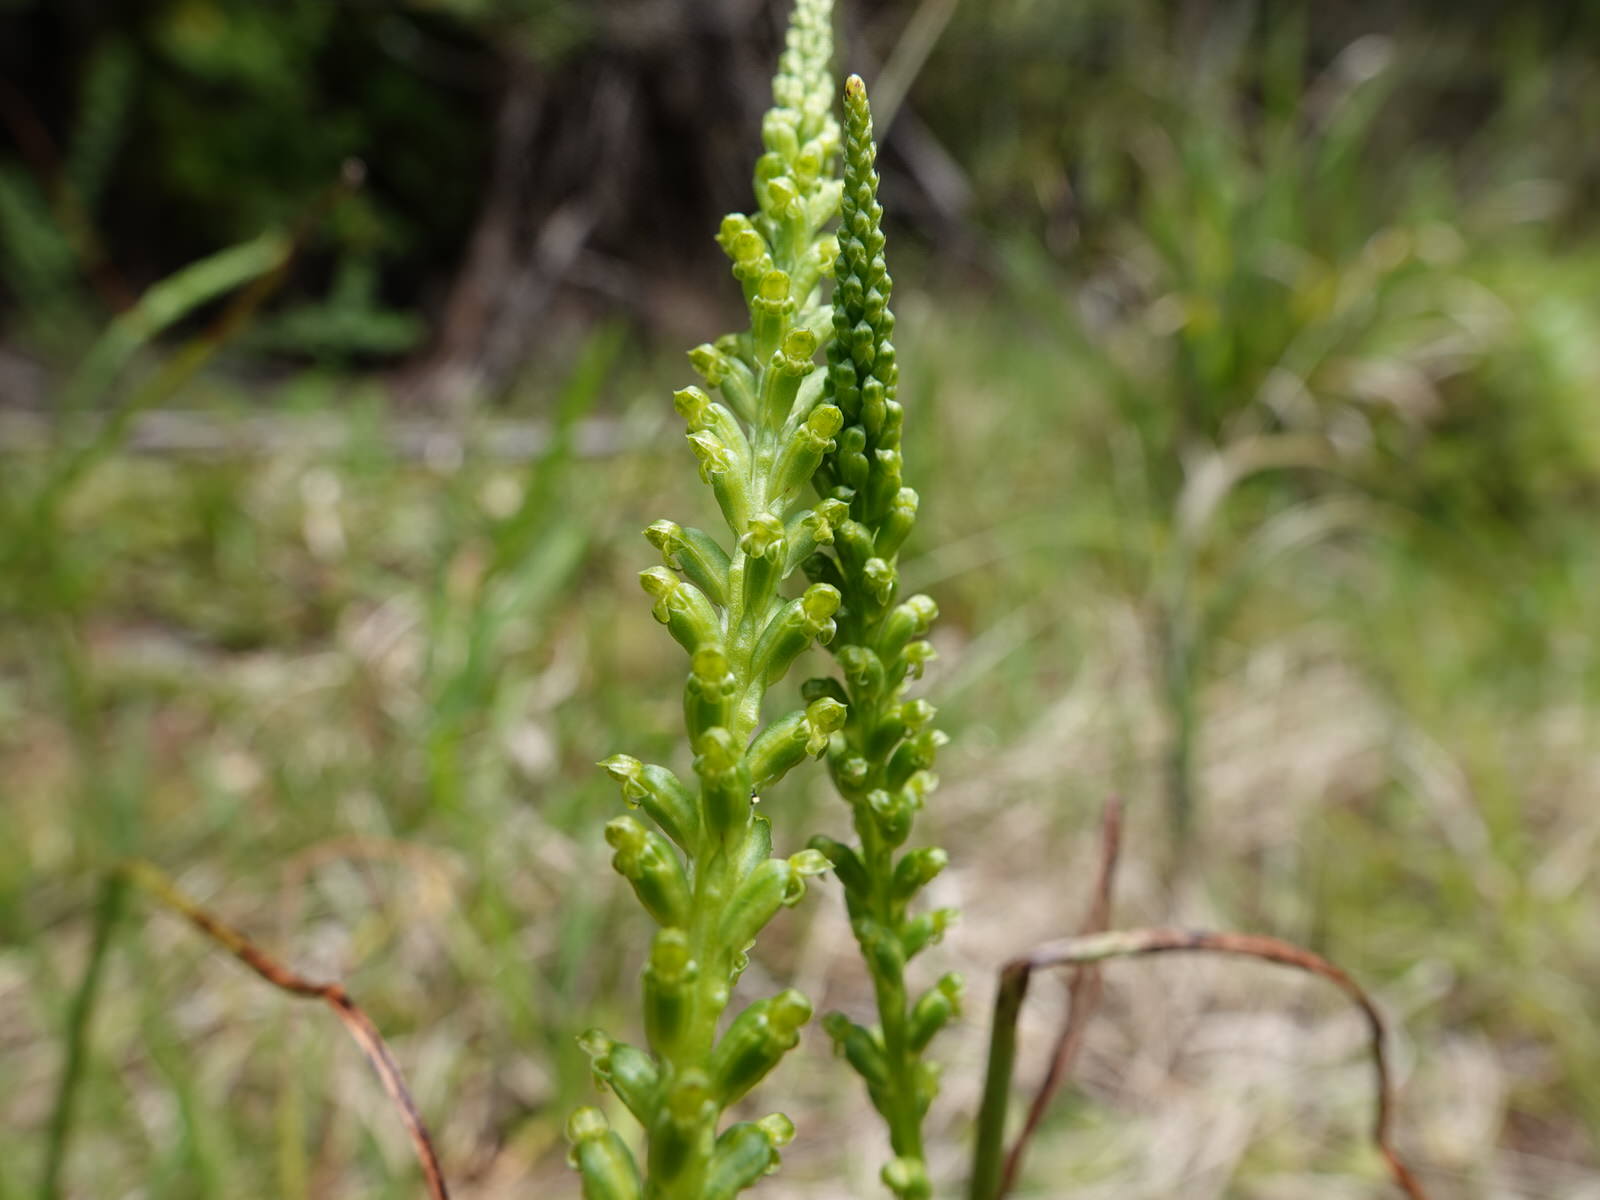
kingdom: Plantae
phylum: Tracheophyta
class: Liliopsida
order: Asparagales
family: Orchidaceae
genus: Microtis
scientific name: Microtis unifolia
